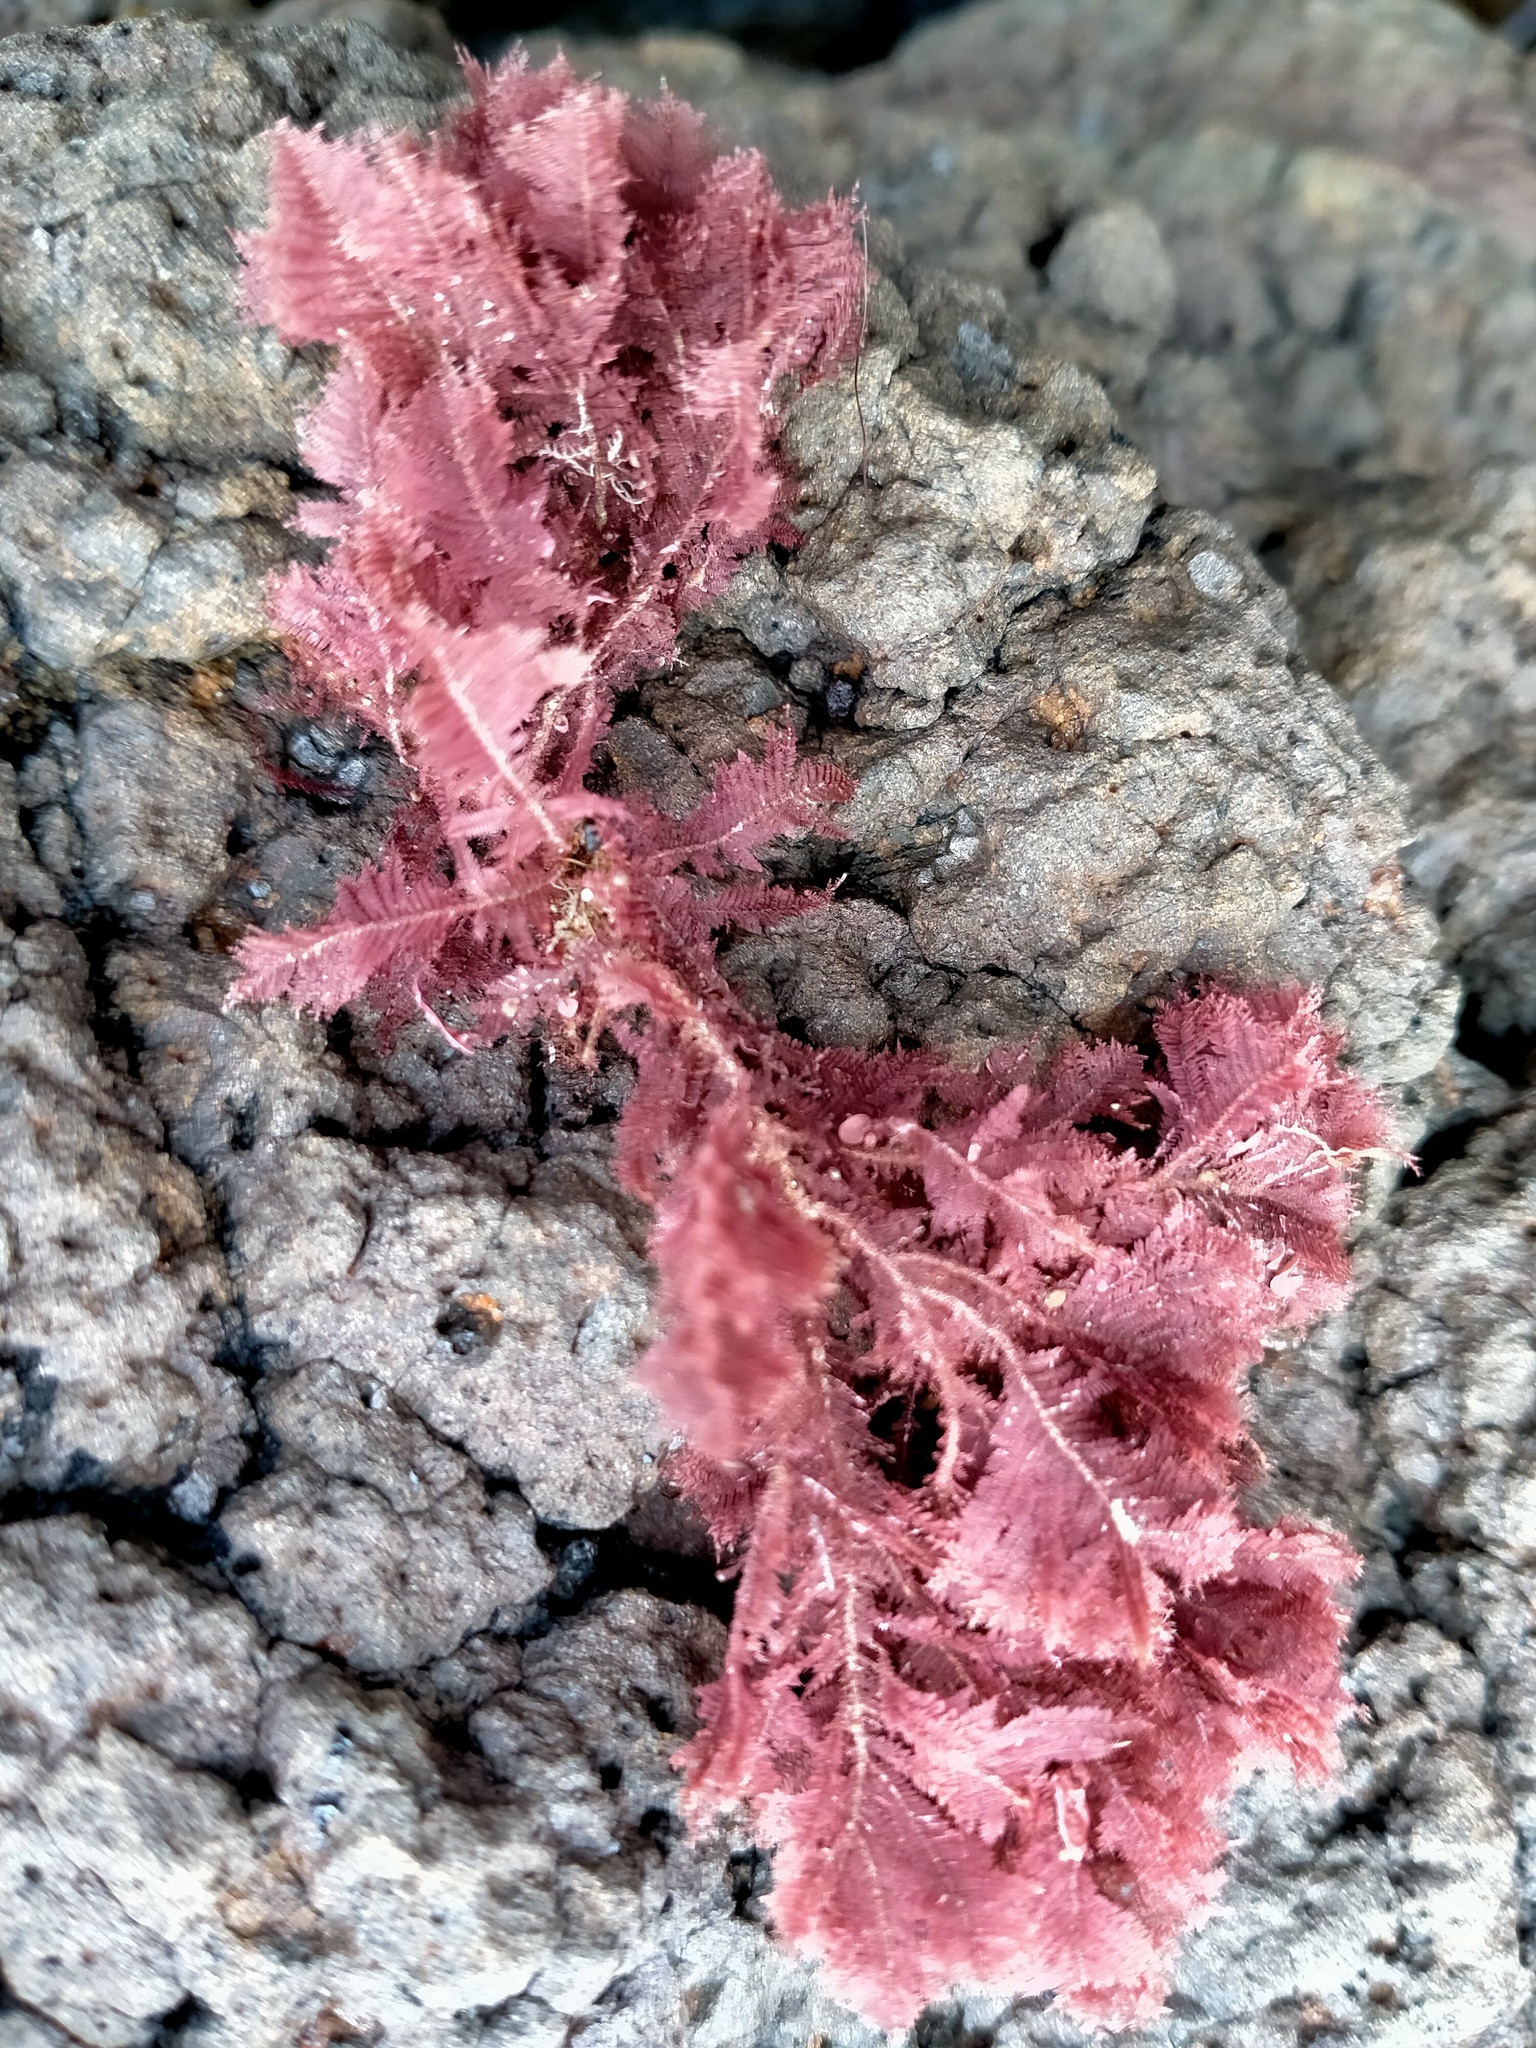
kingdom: Plantae
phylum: Rhodophyta
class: Florideophyceae
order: Balliales
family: Balliaceae
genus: Ballia
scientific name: Ballia callitricha
